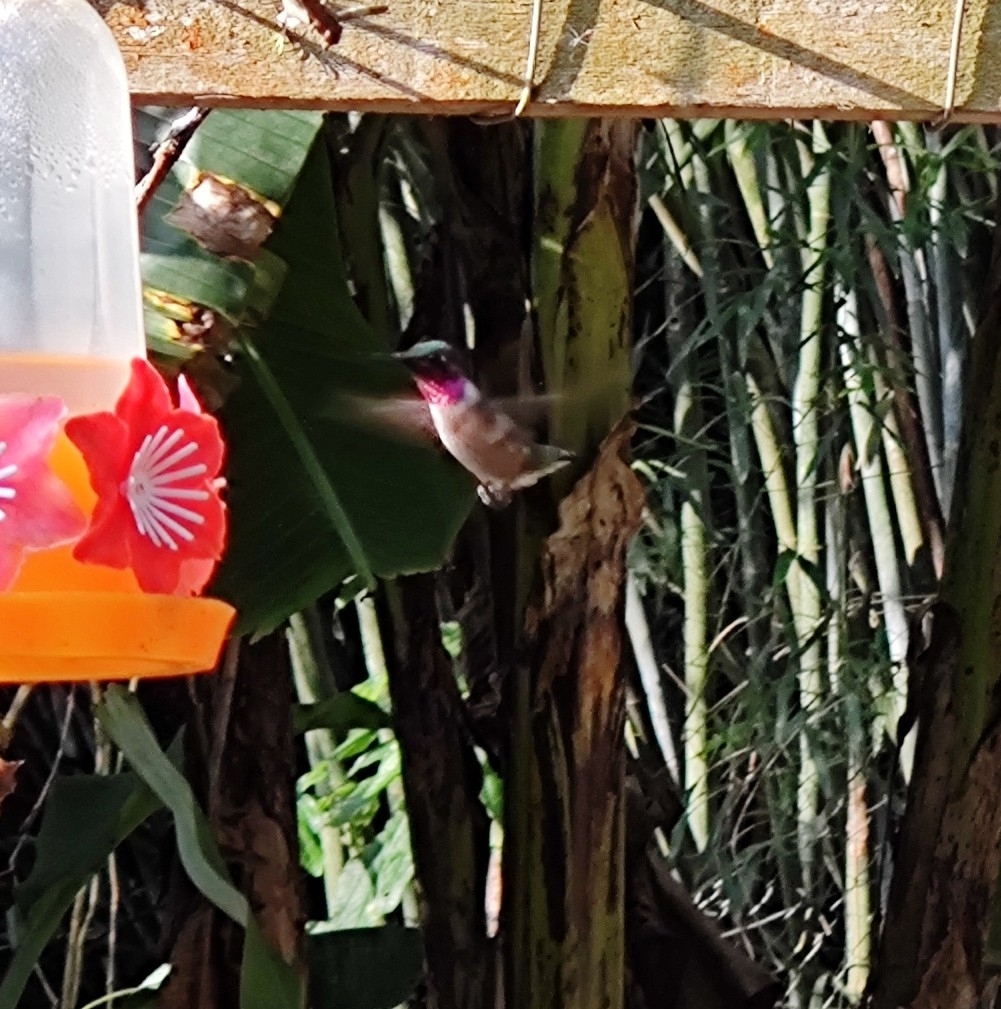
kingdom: Animalia
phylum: Chordata
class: Aves
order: Apodiformes
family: Trochilidae
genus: Calliphlox
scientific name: Calliphlox amethystina
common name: Amethyst woodstar
